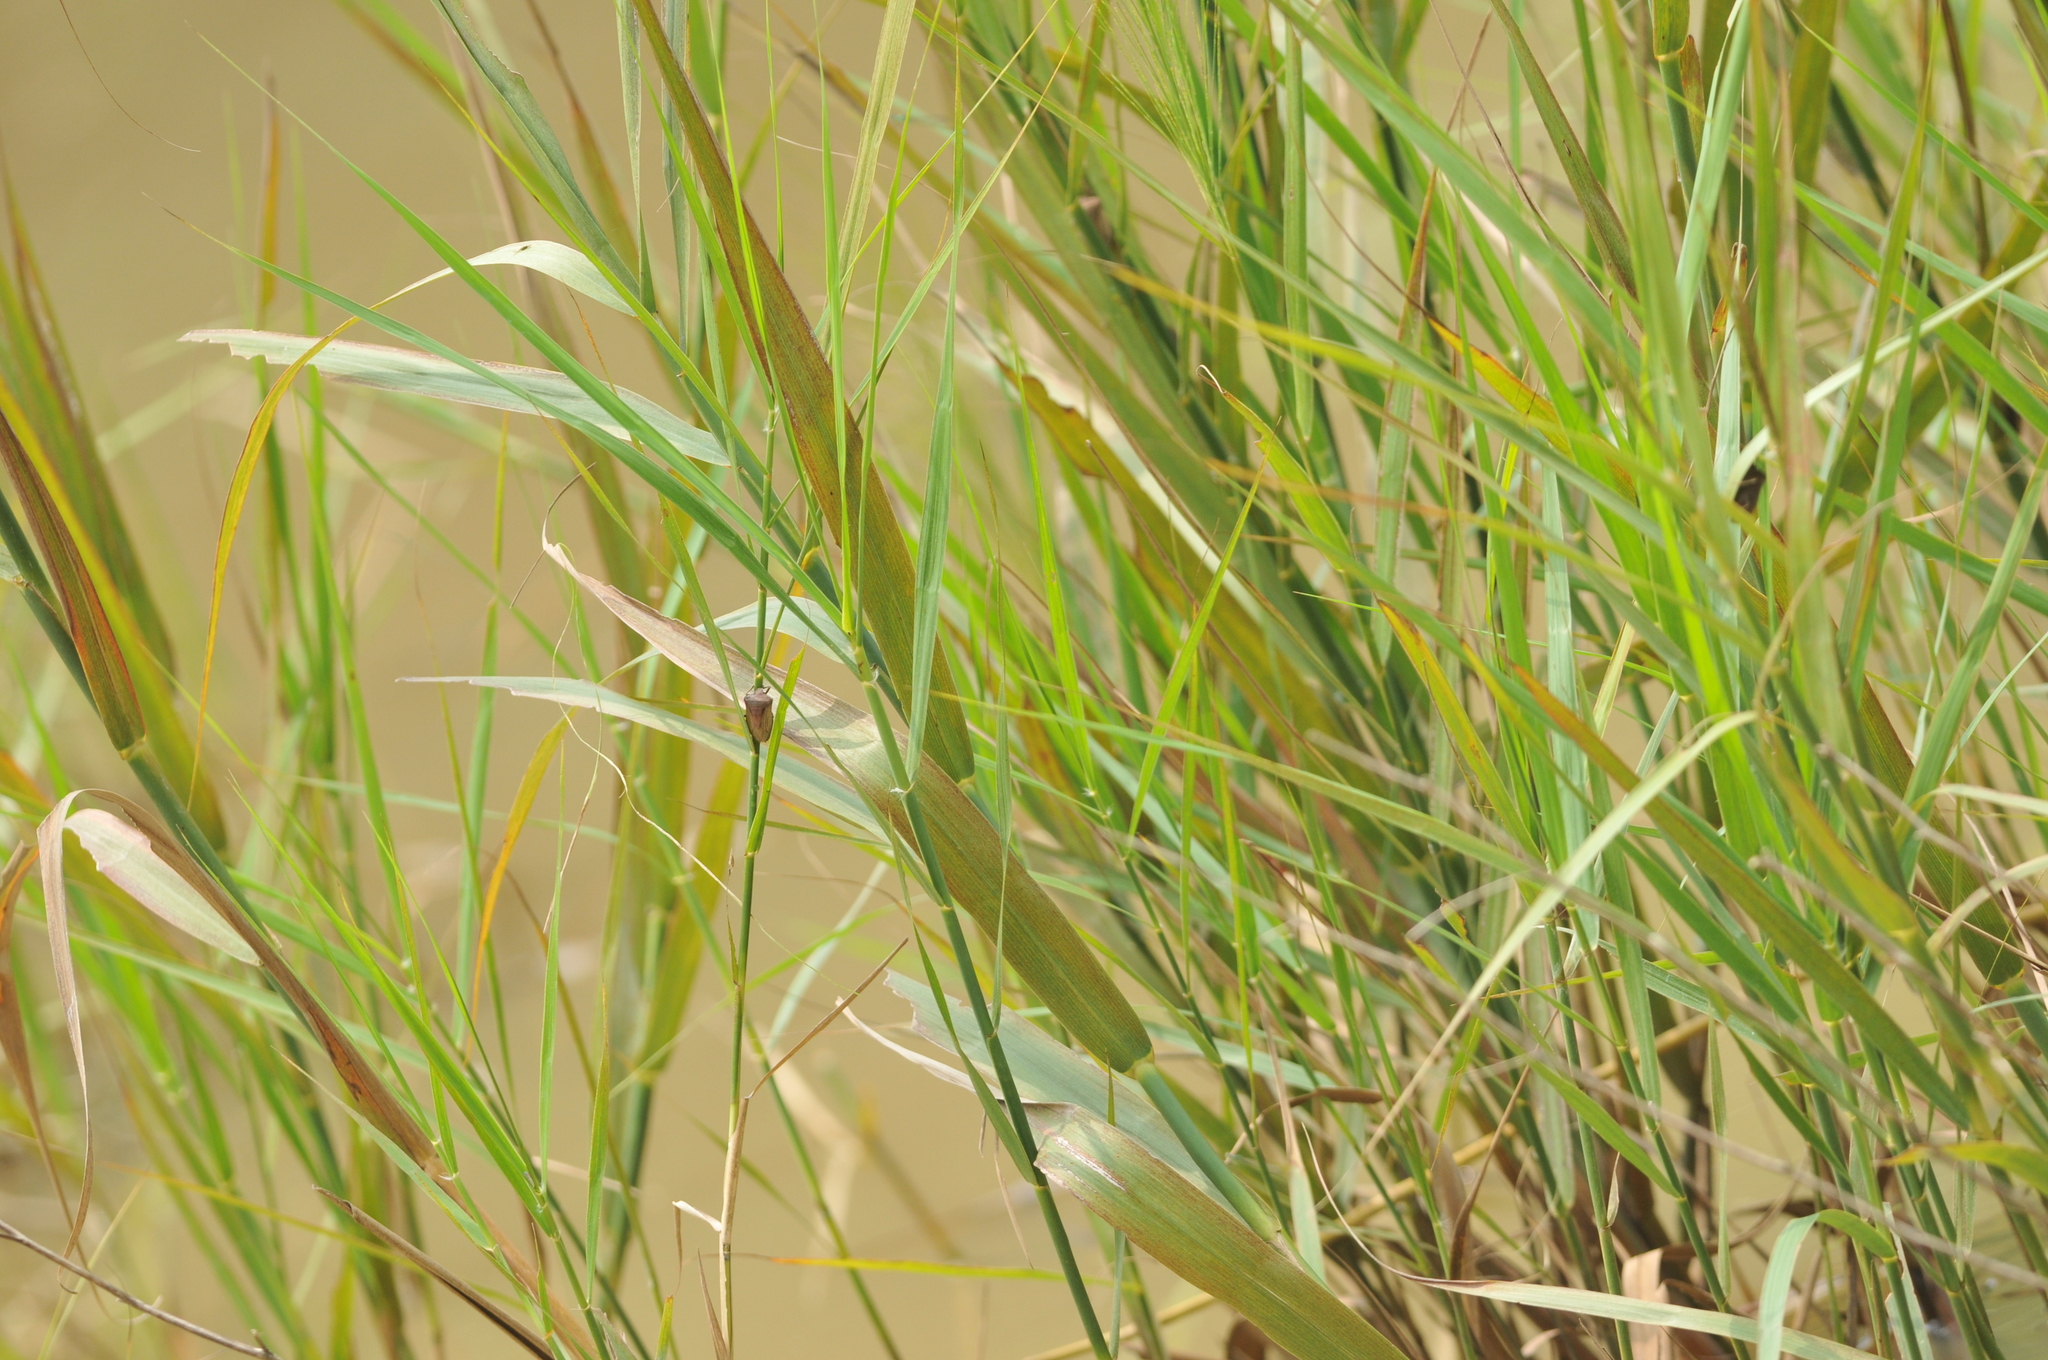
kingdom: Animalia
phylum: Arthropoda
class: Insecta
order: Hemiptera
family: Pentatomidae
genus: Chalcopis
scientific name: Chalcopis glandulosa
